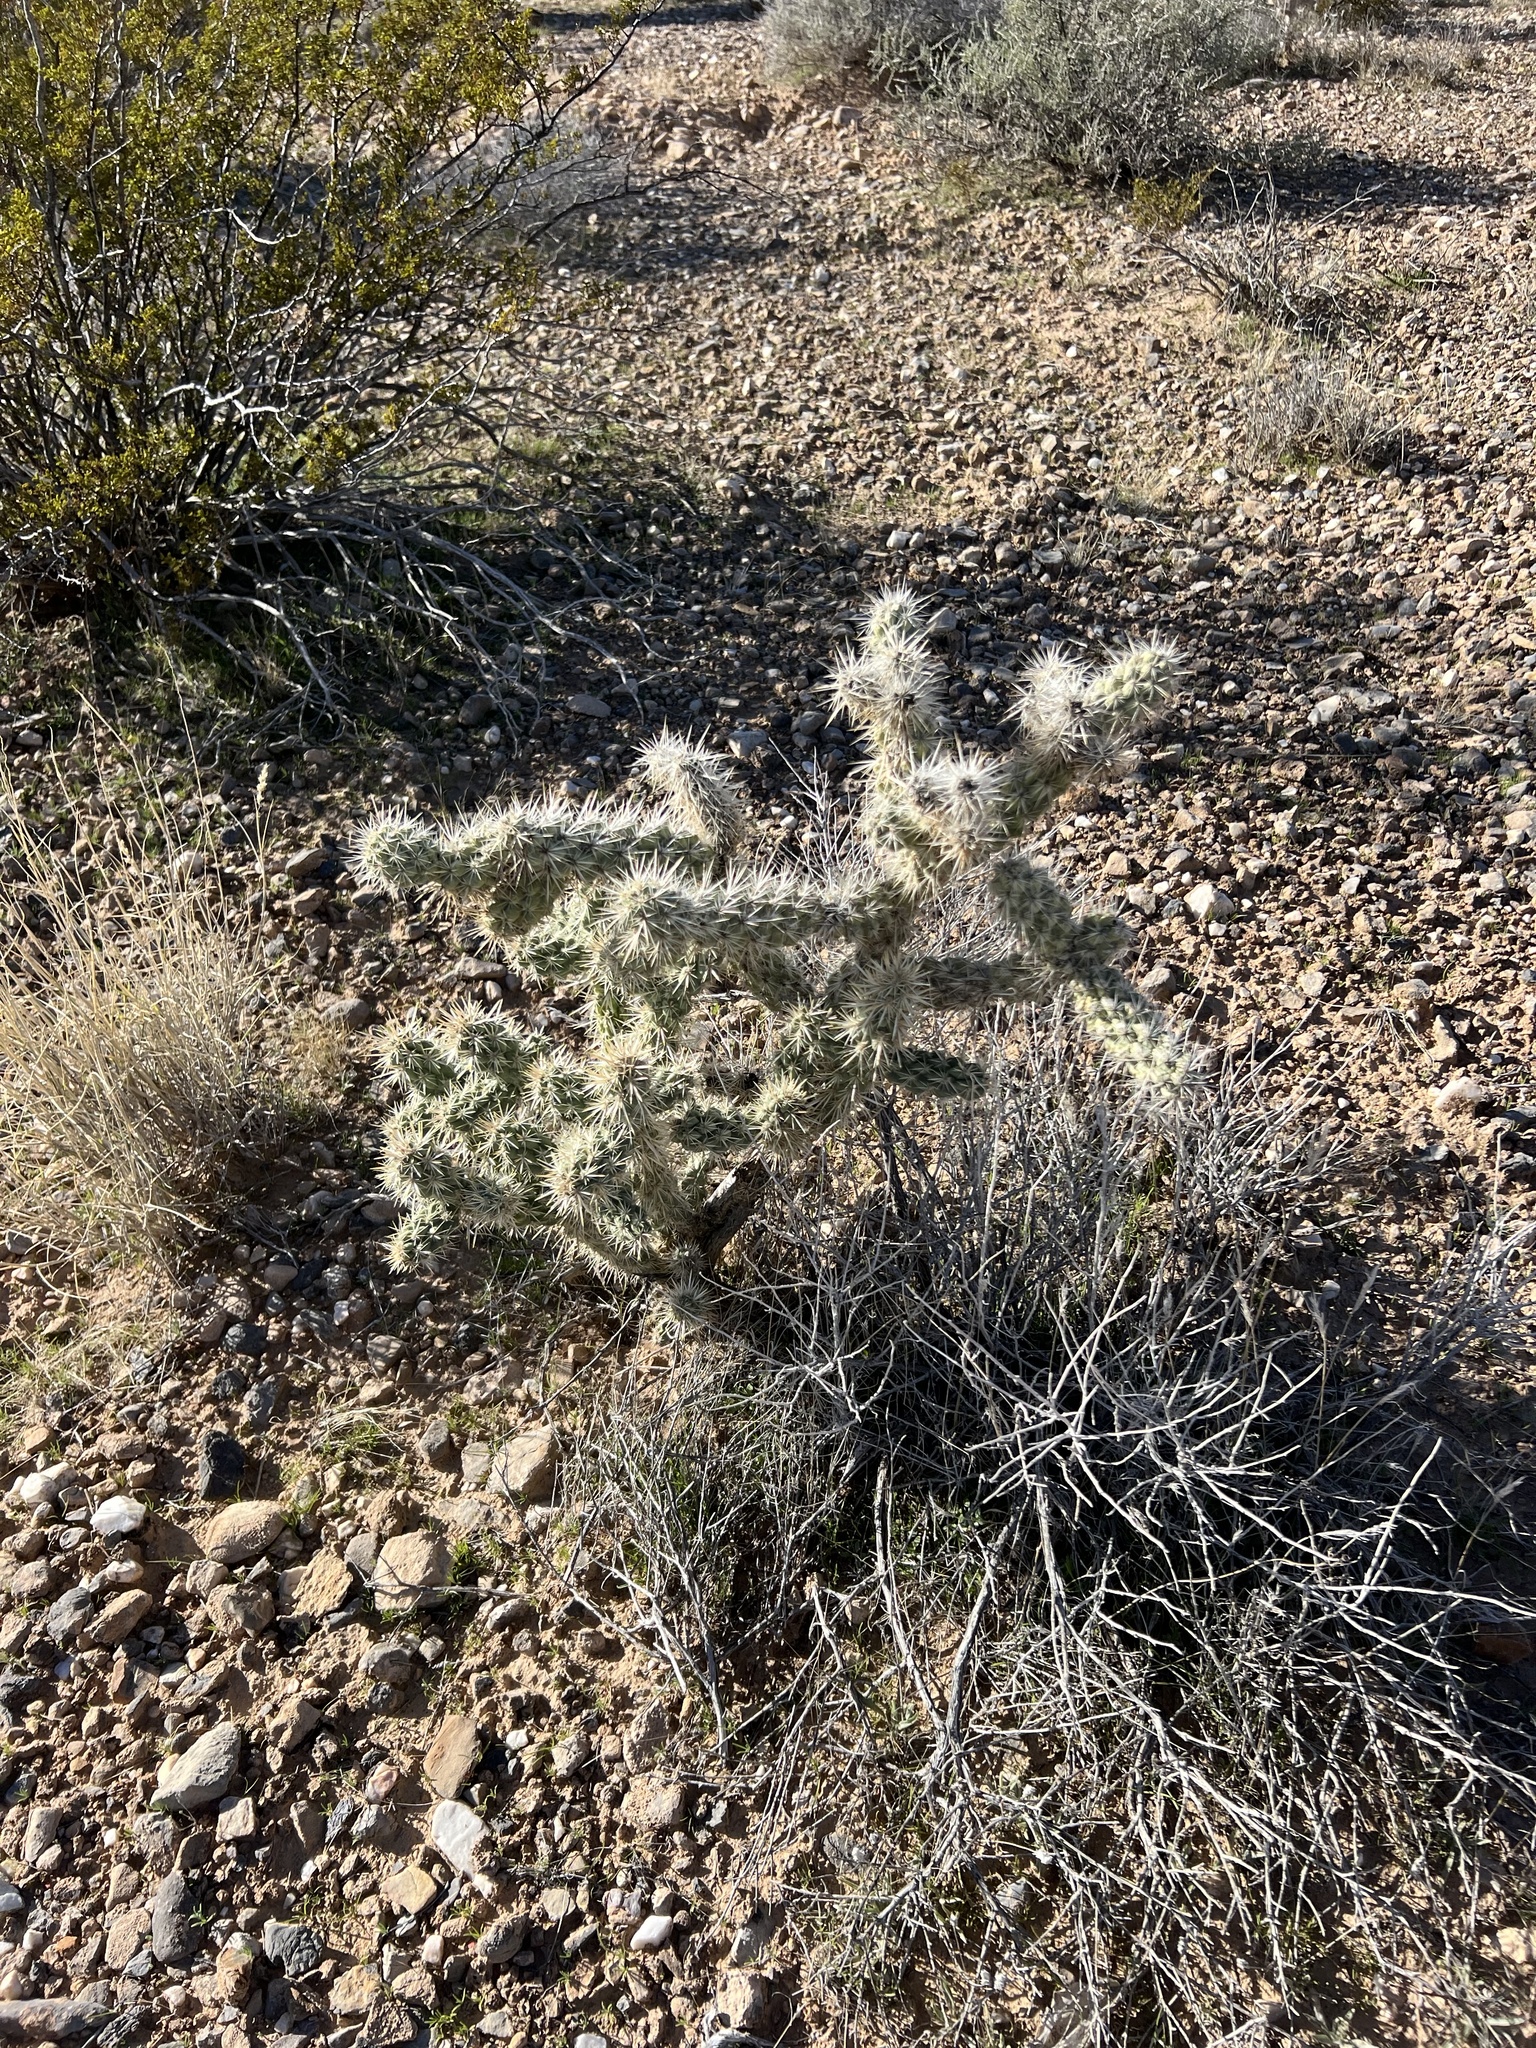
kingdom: Plantae
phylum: Tracheophyta
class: Magnoliopsida
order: Caryophyllales
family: Cactaceae
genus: Cylindropuntia
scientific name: Cylindropuntia echinocarpa
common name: Ground cholla
